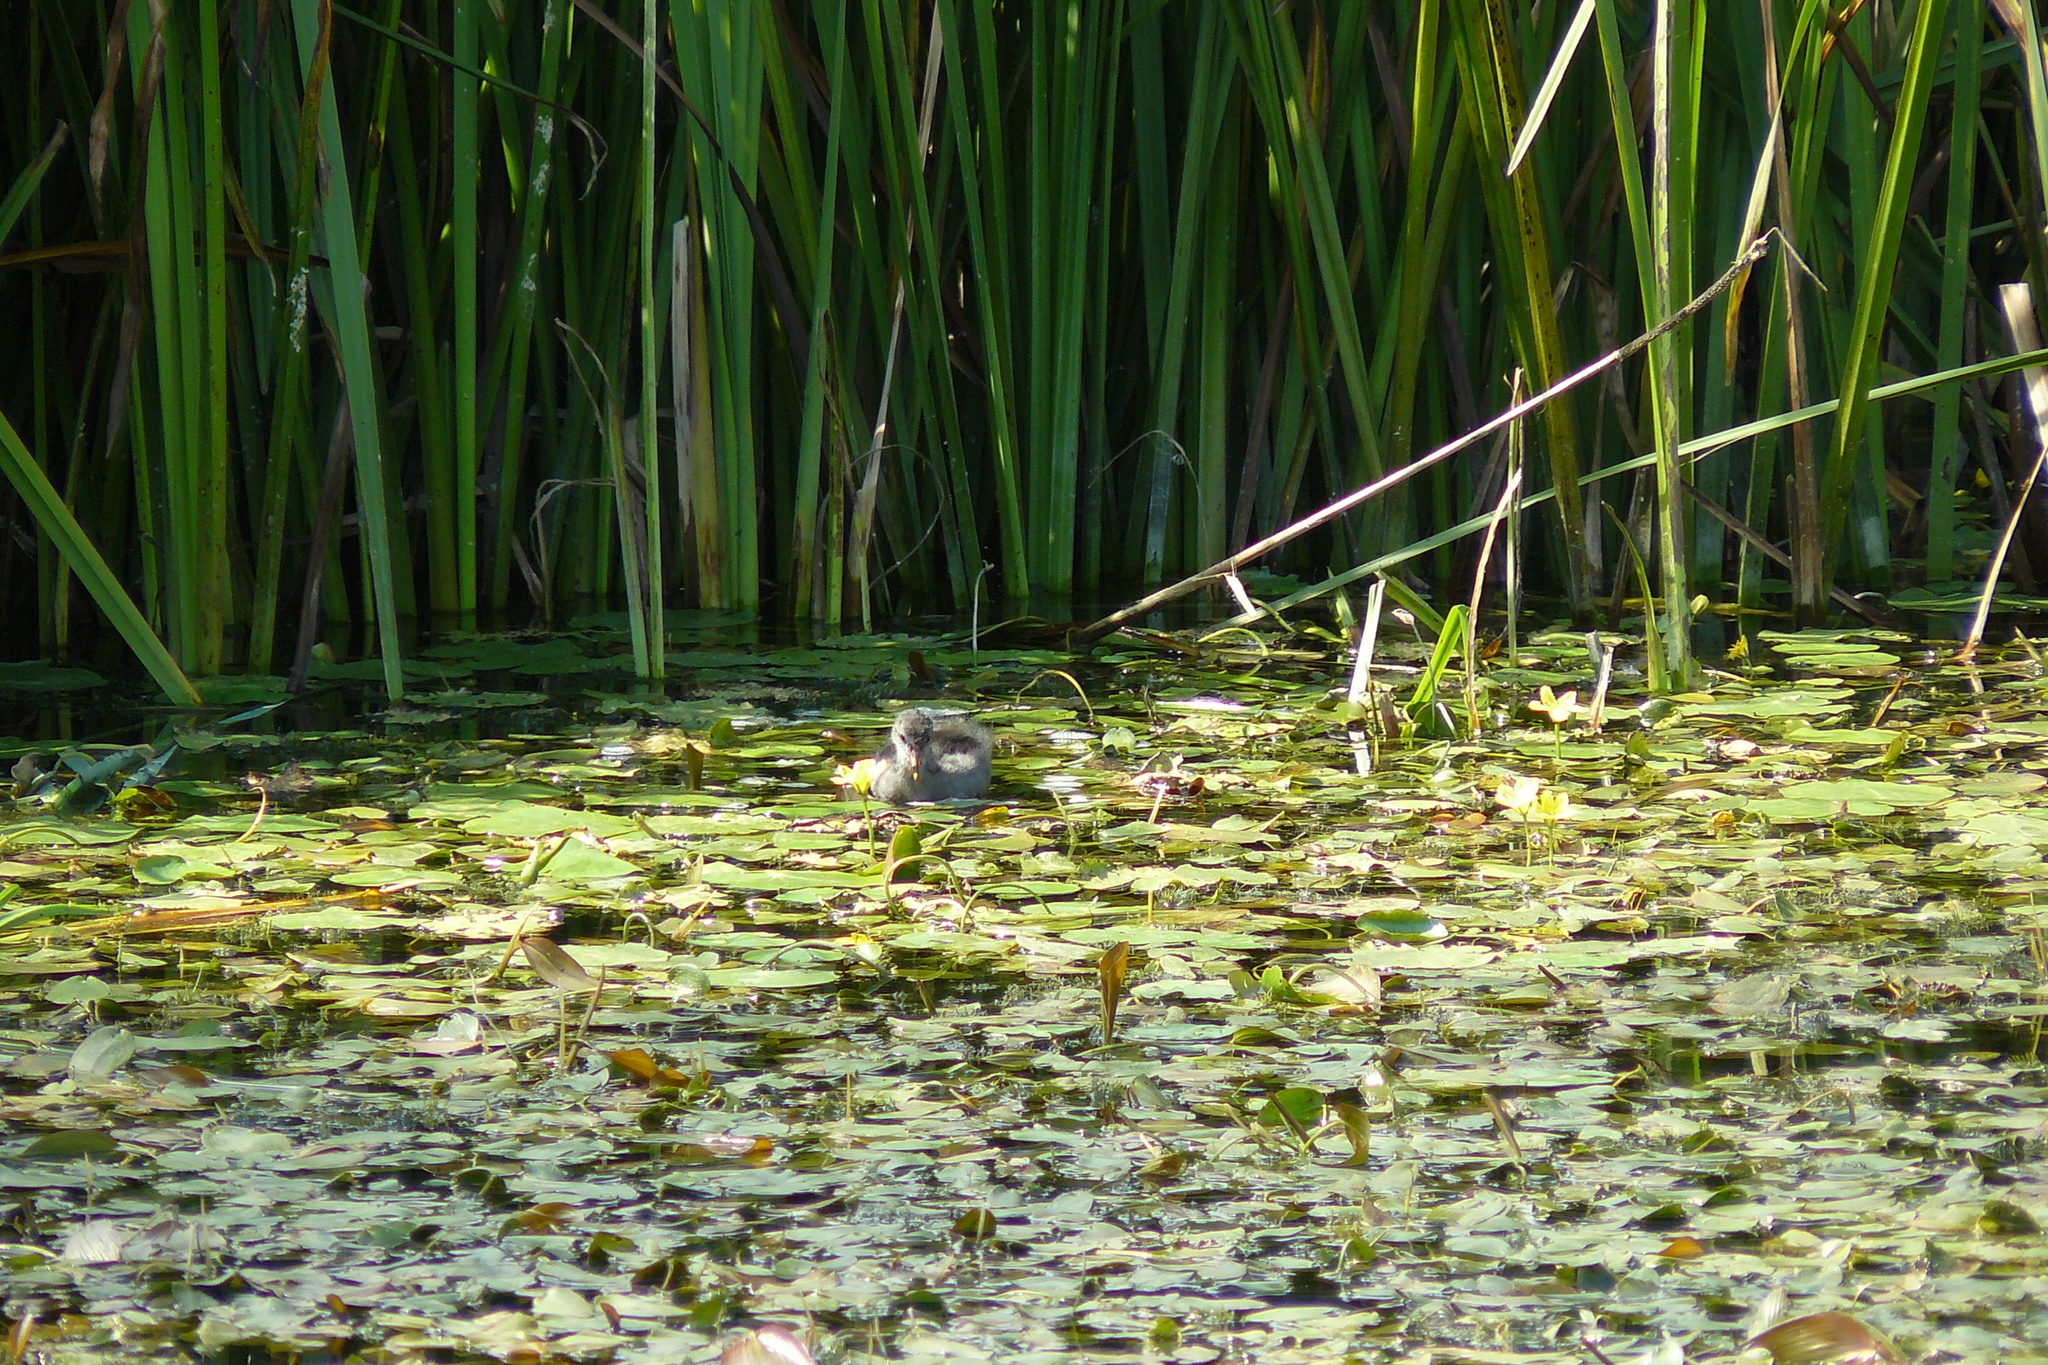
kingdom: Animalia
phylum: Chordata
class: Aves
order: Gruiformes
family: Rallidae
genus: Fulica
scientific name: Fulica atra
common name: Eurasian coot
